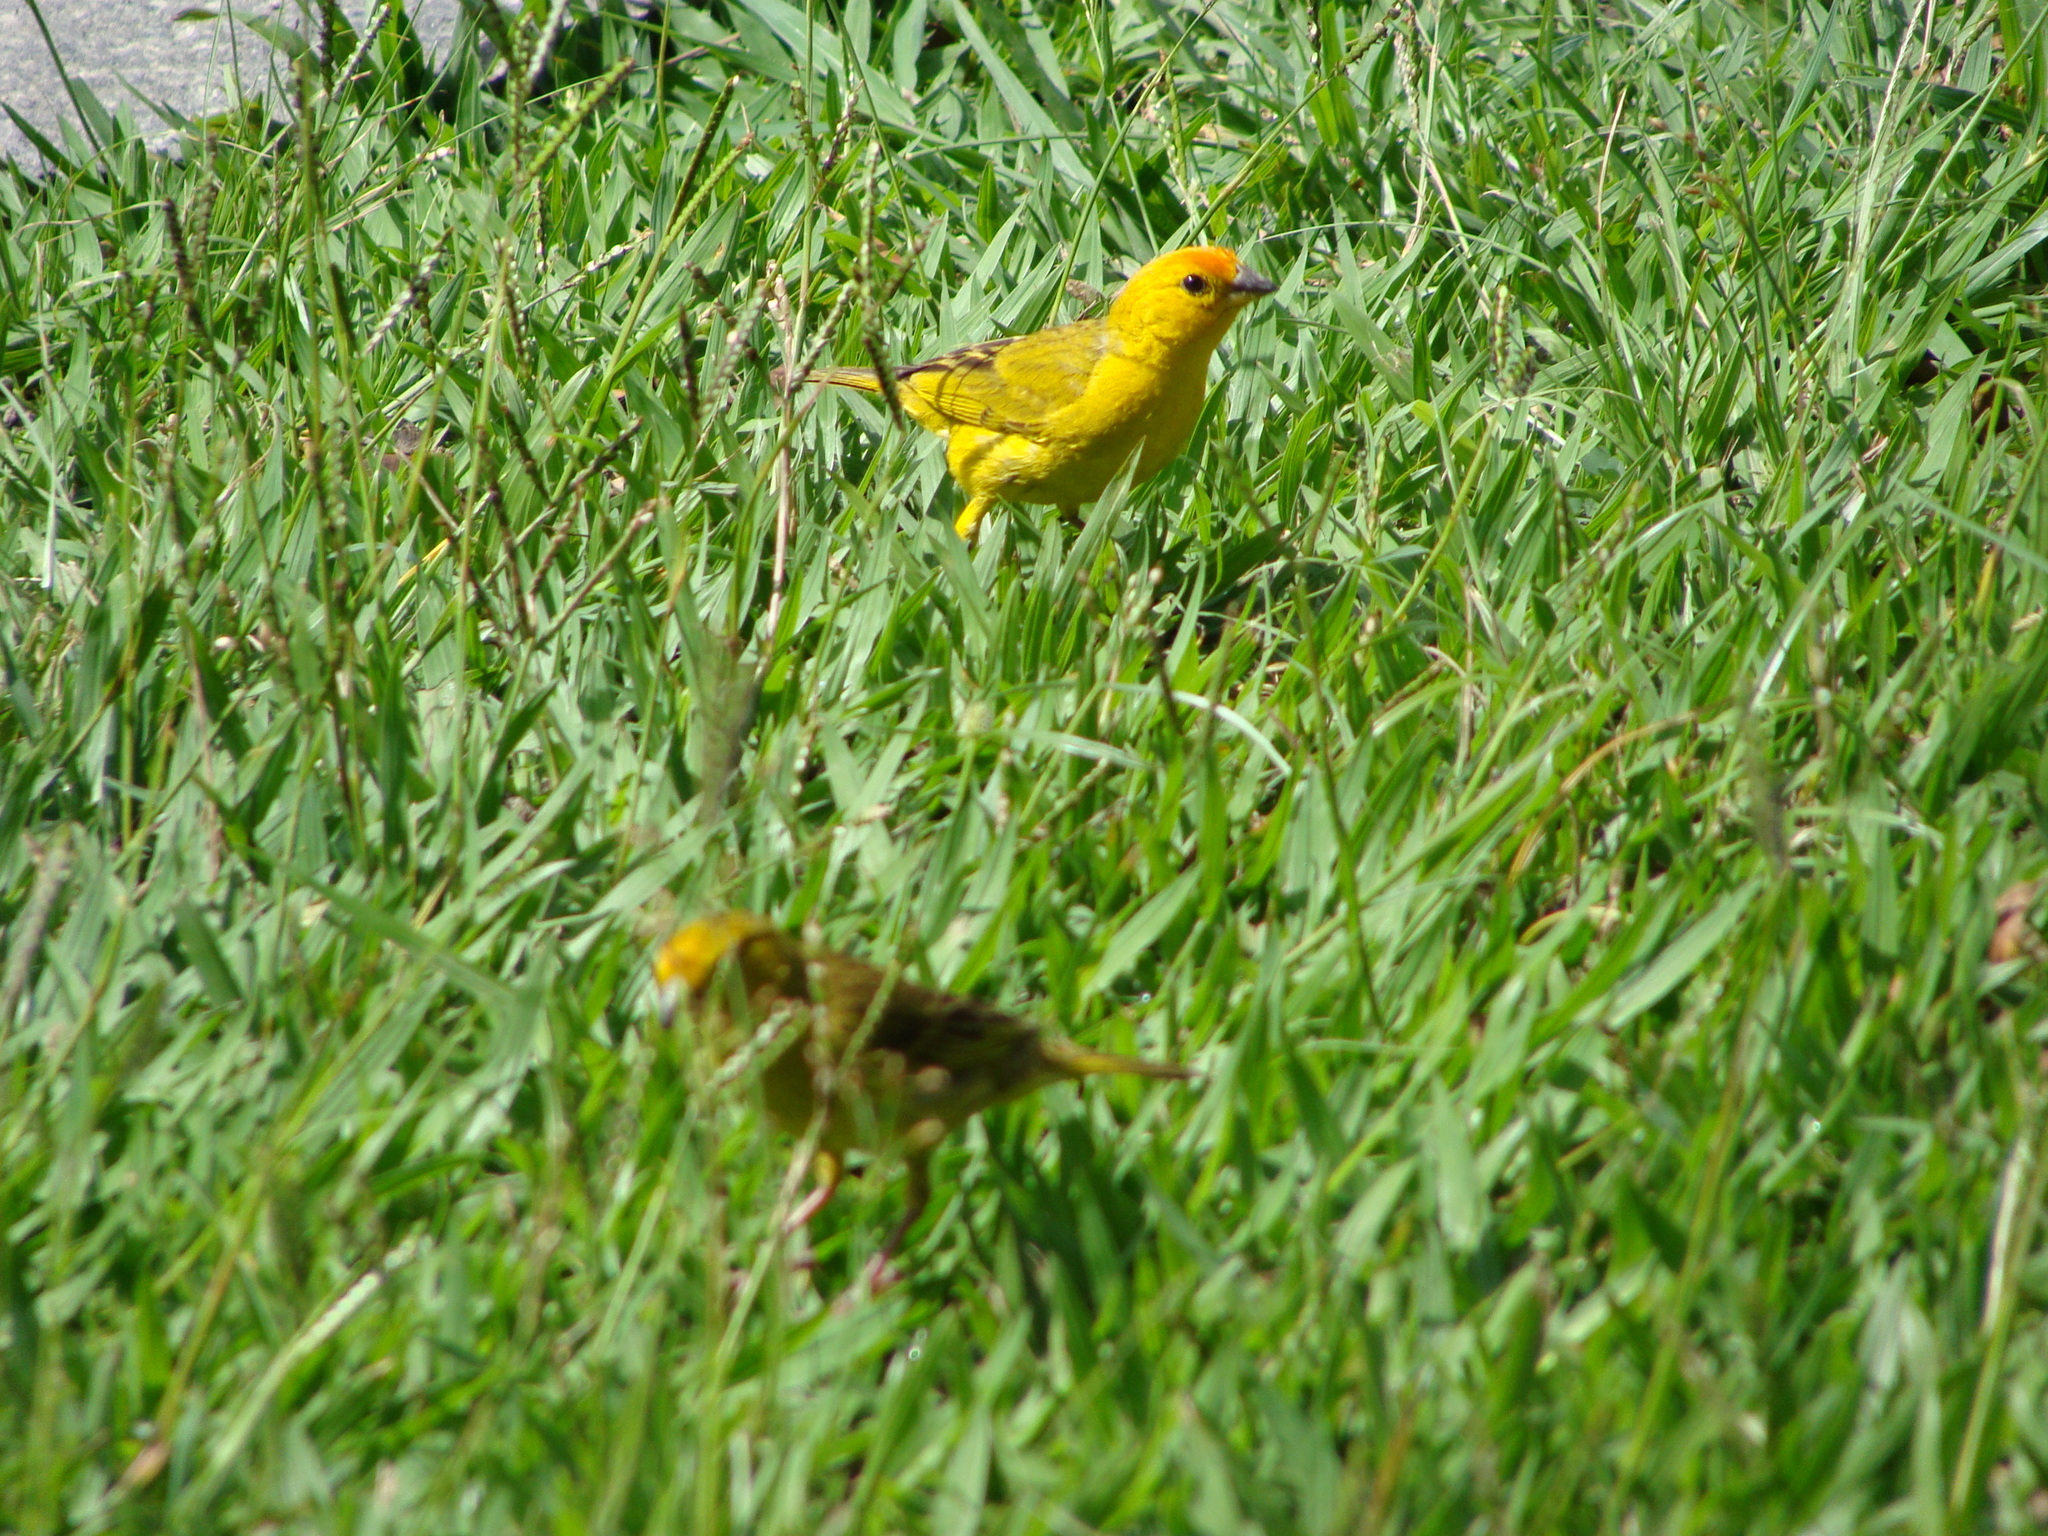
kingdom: Animalia
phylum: Chordata
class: Aves
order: Passeriformes
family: Thraupidae
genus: Sicalis
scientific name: Sicalis flaveola
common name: Saffron finch
